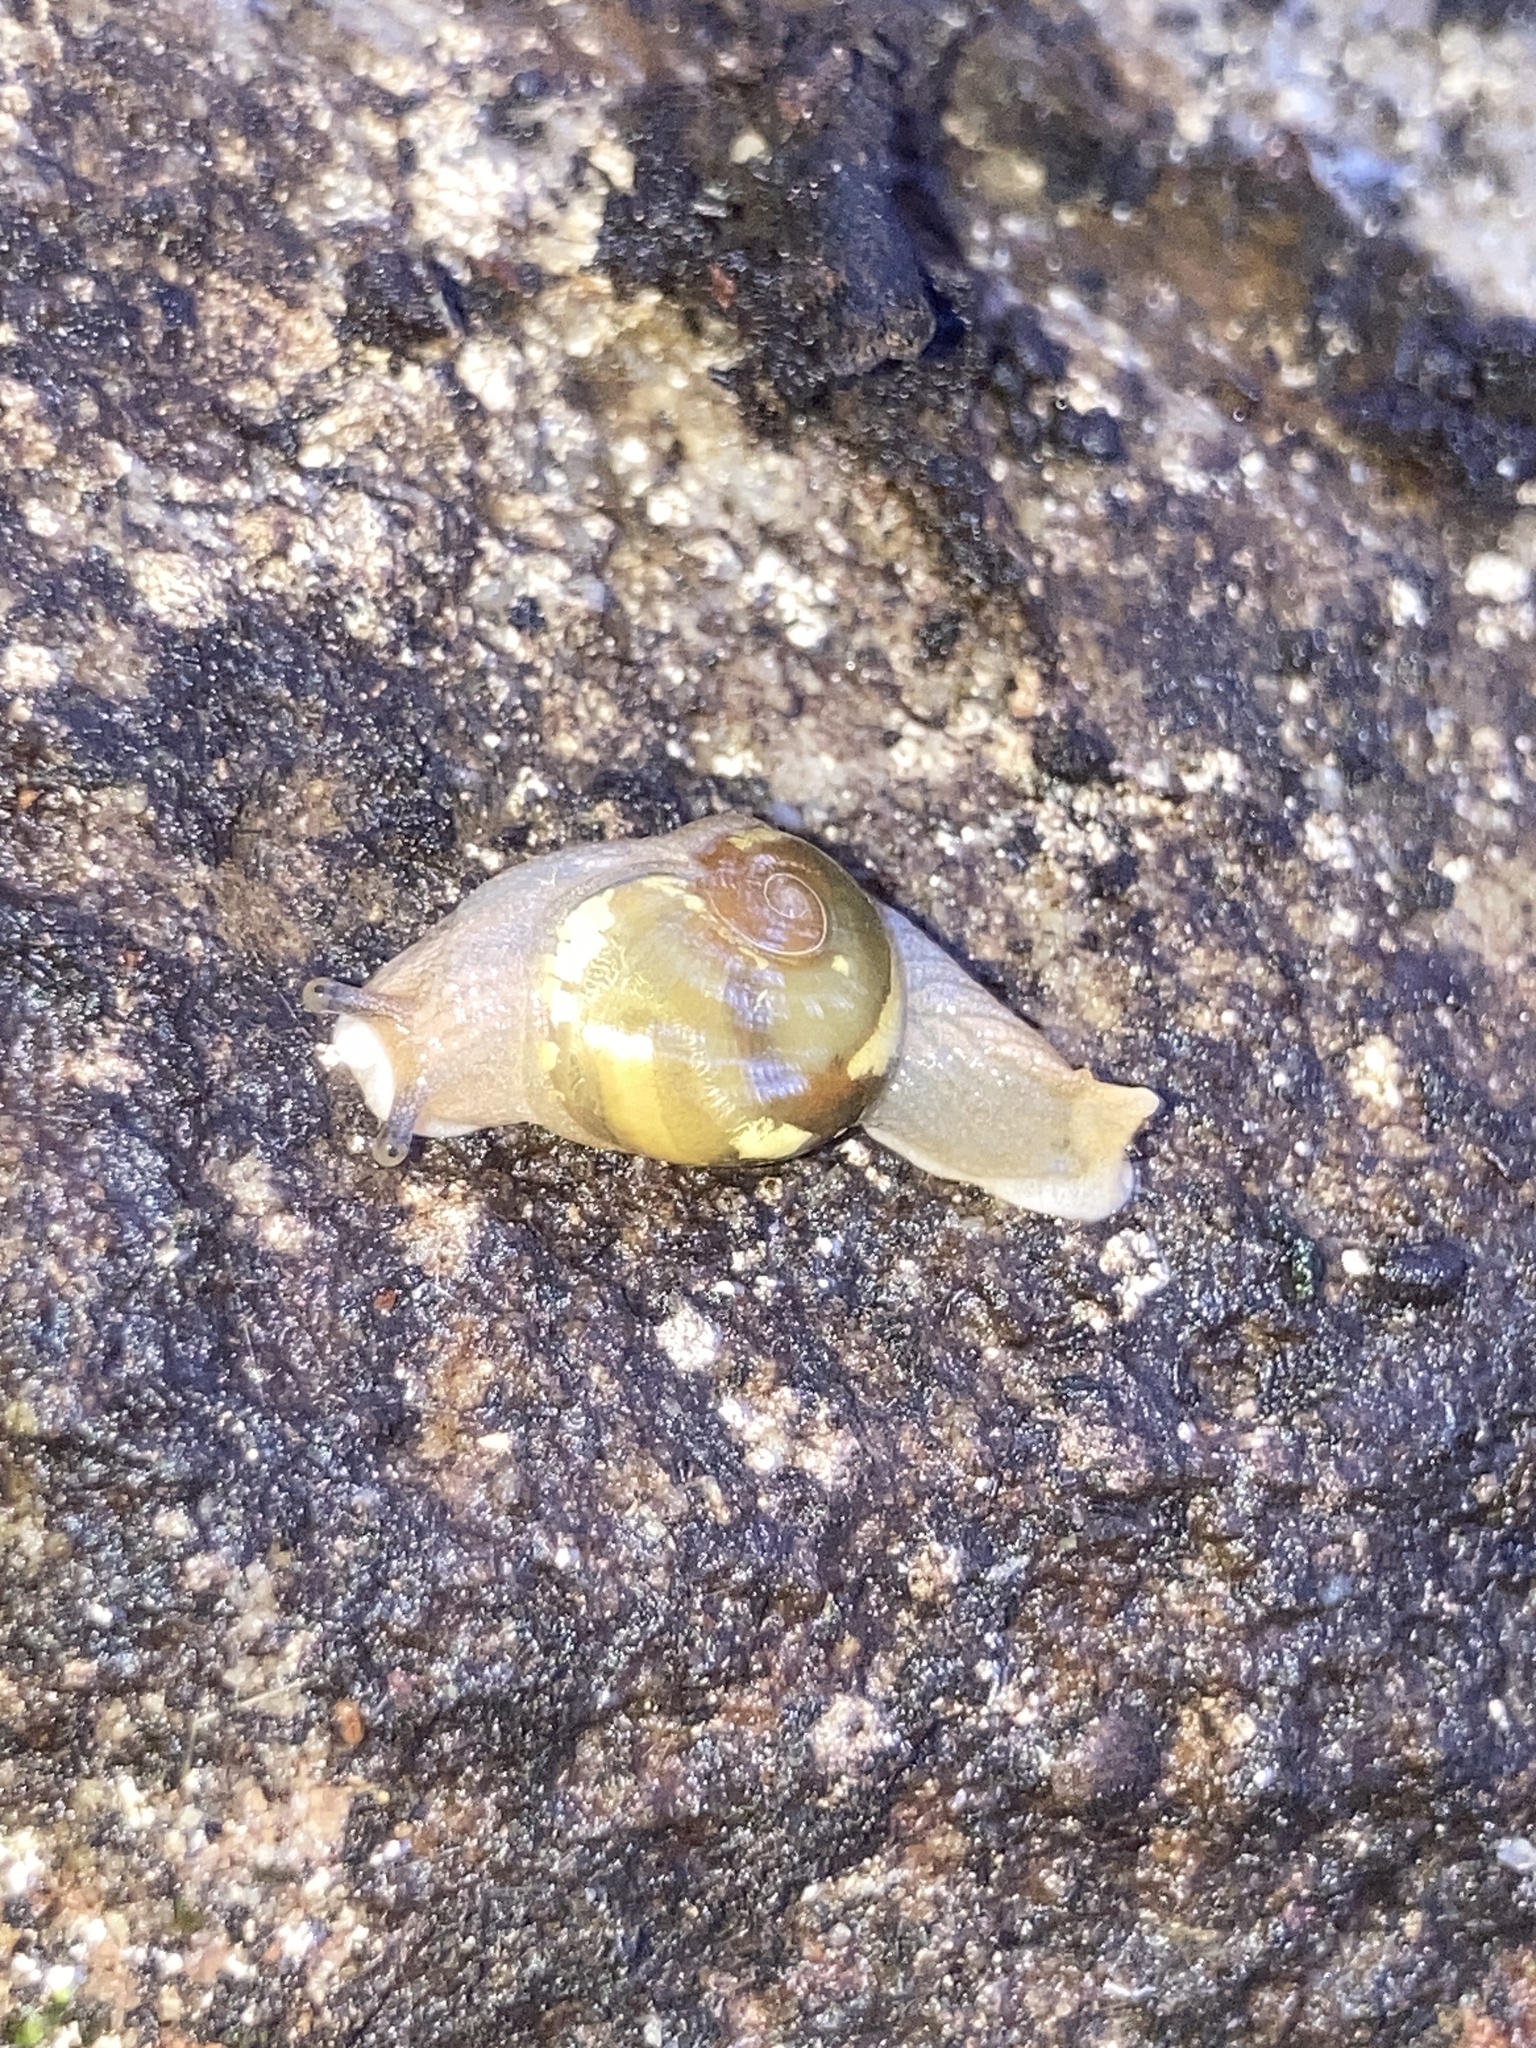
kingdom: Animalia
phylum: Mollusca
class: Gastropoda
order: Stylommatophora
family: Helicarionidae
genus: Helicarion
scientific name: Helicarion mastersi
